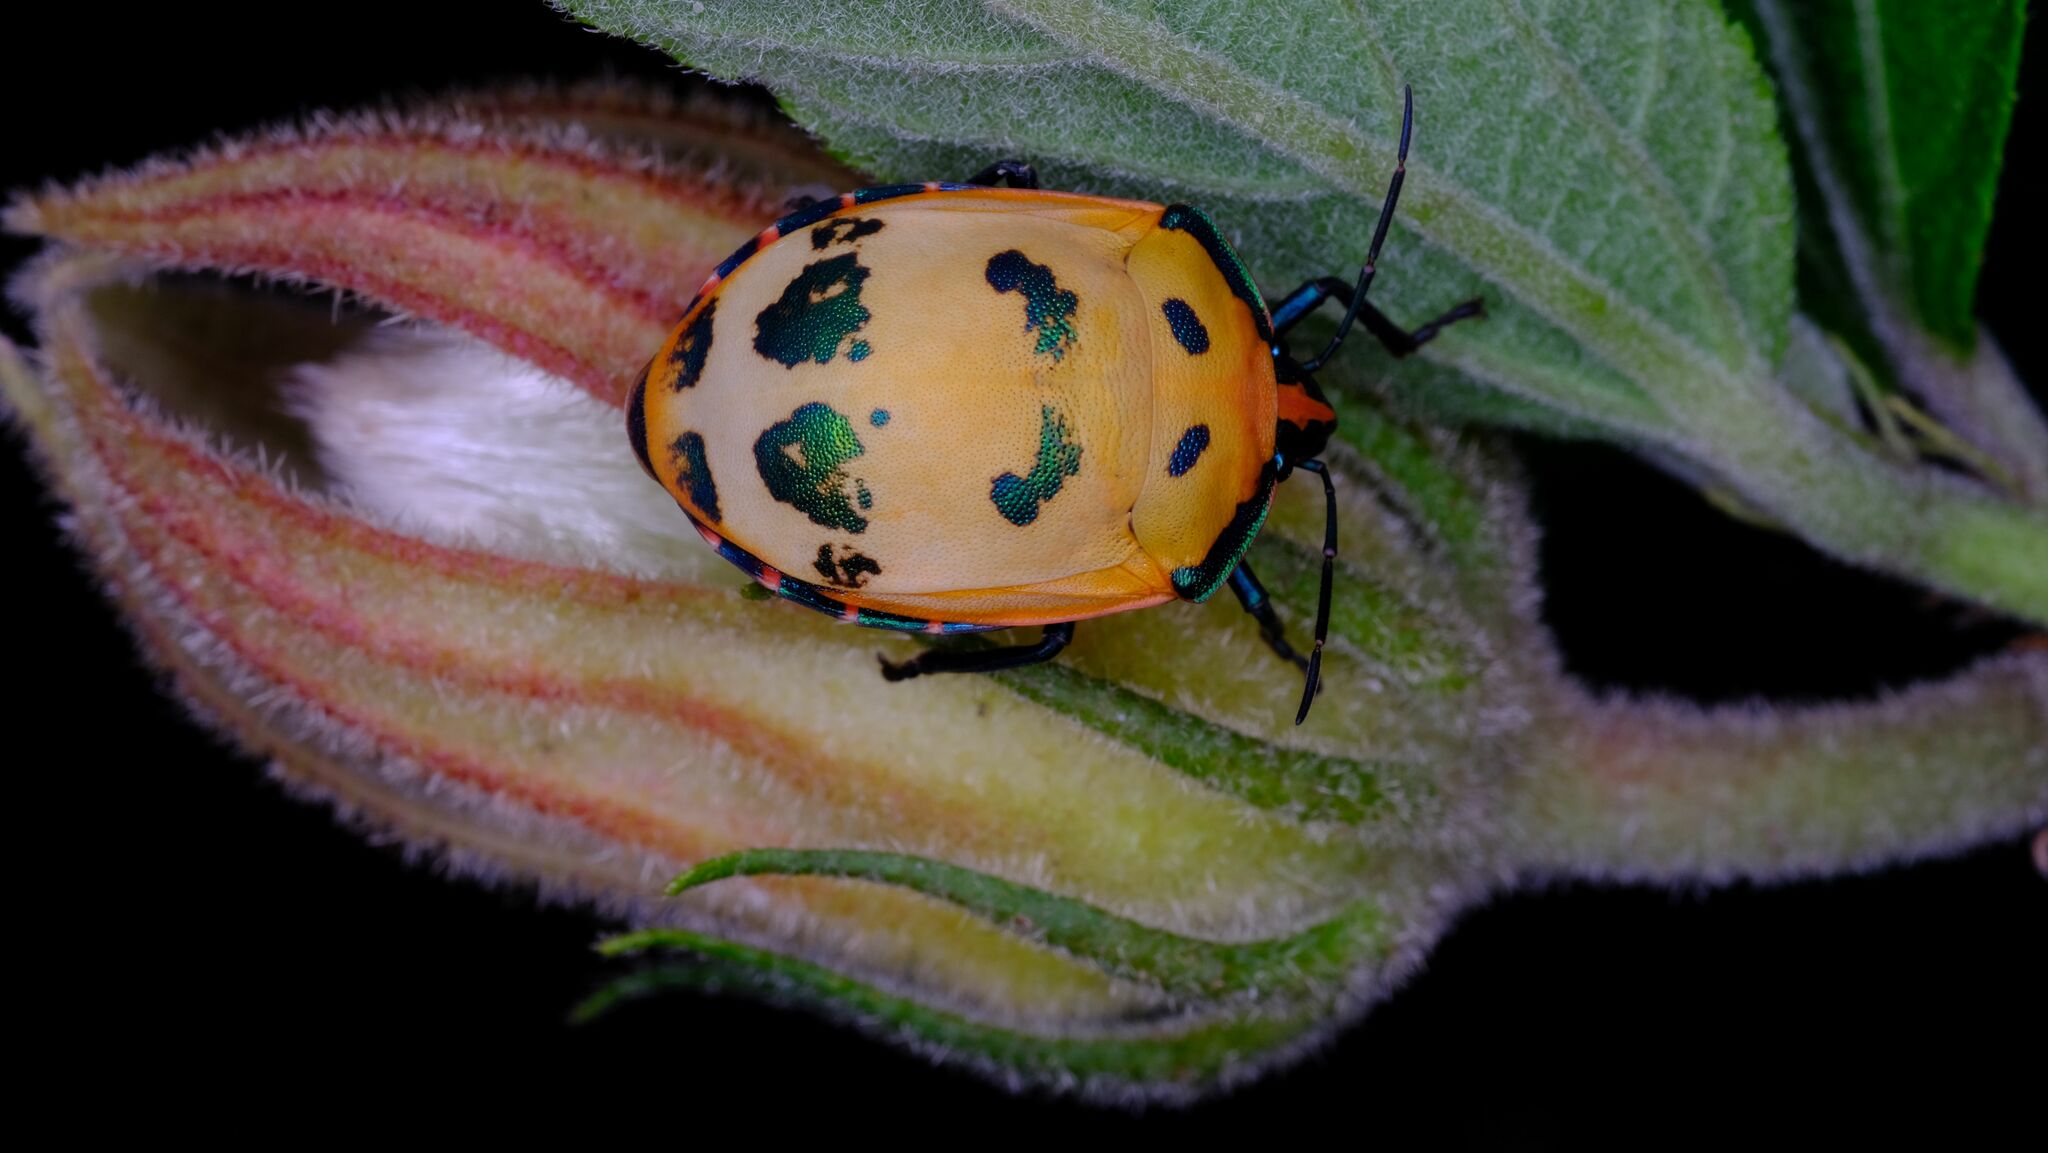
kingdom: Animalia
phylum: Arthropoda
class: Insecta
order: Hemiptera
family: Scutelleridae
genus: Tectocoris
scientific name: Tectocoris diophthalmus
